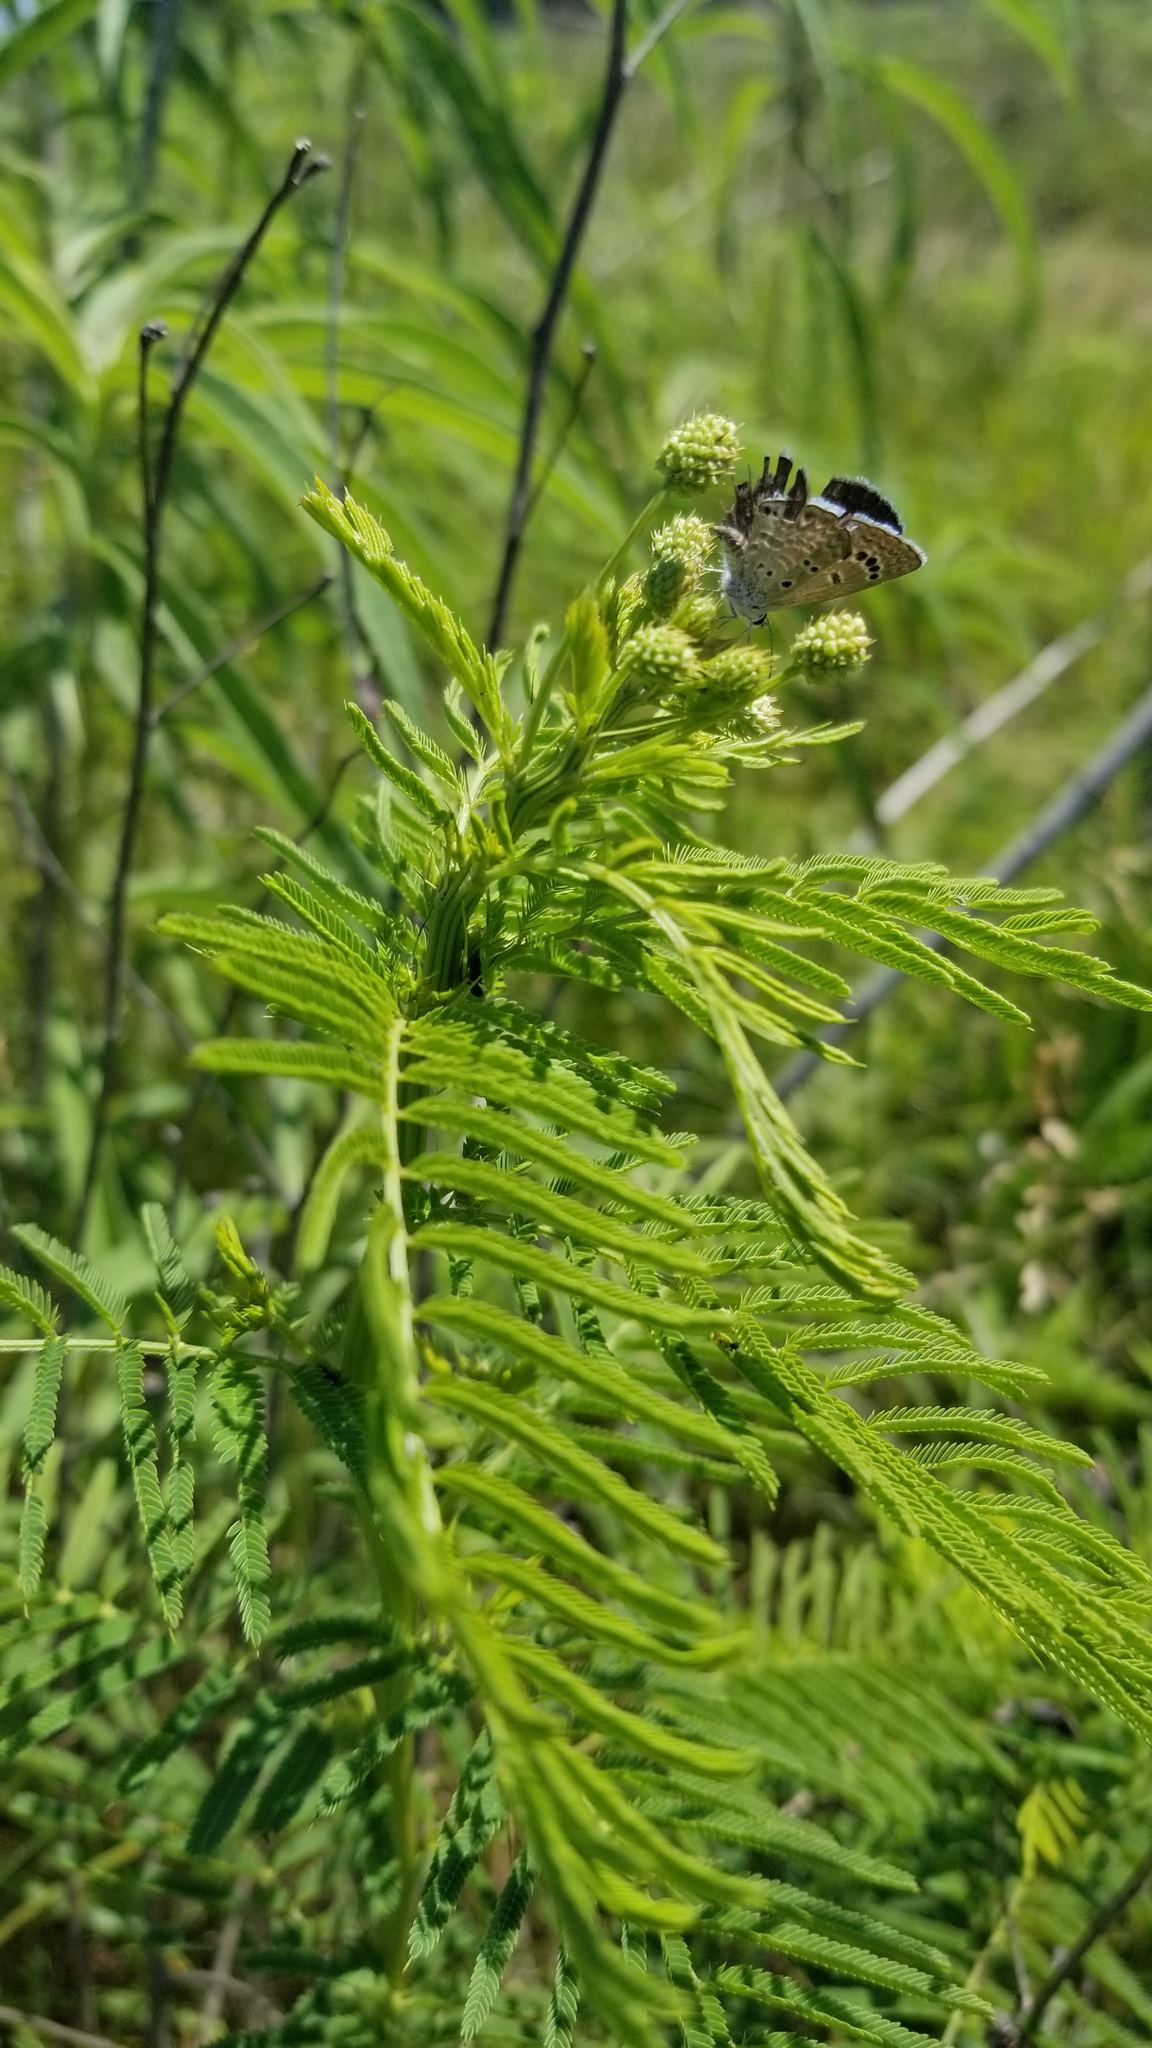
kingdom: Animalia
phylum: Arthropoda
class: Insecta
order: Lepidoptera
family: Lycaenidae
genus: Echinargus
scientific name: Echinargus isola
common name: Reakirt's blue
